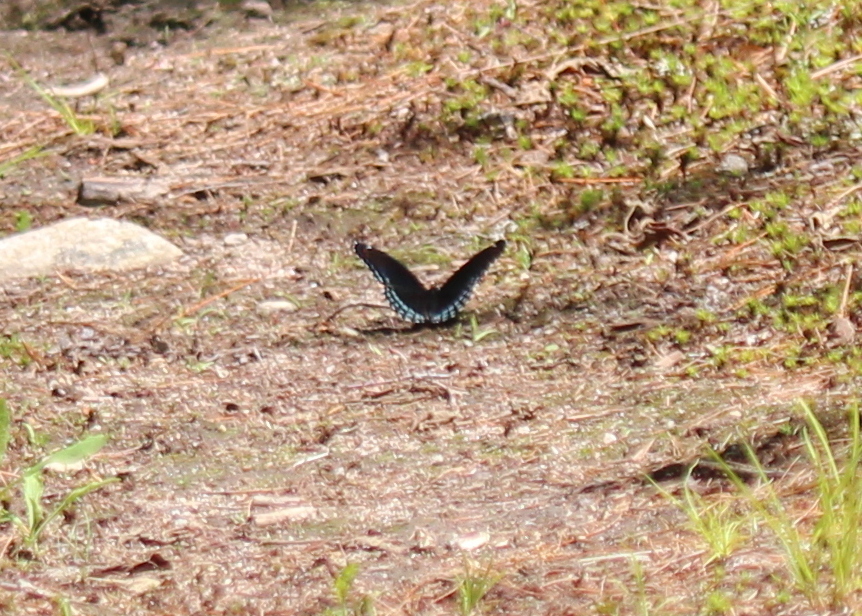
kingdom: Animalia
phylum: Arthropoda
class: Insecta
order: Lepidoptera
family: Nymphalidae
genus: Limenitis
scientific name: Limenitis arthemis
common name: Red-spotted admiral
